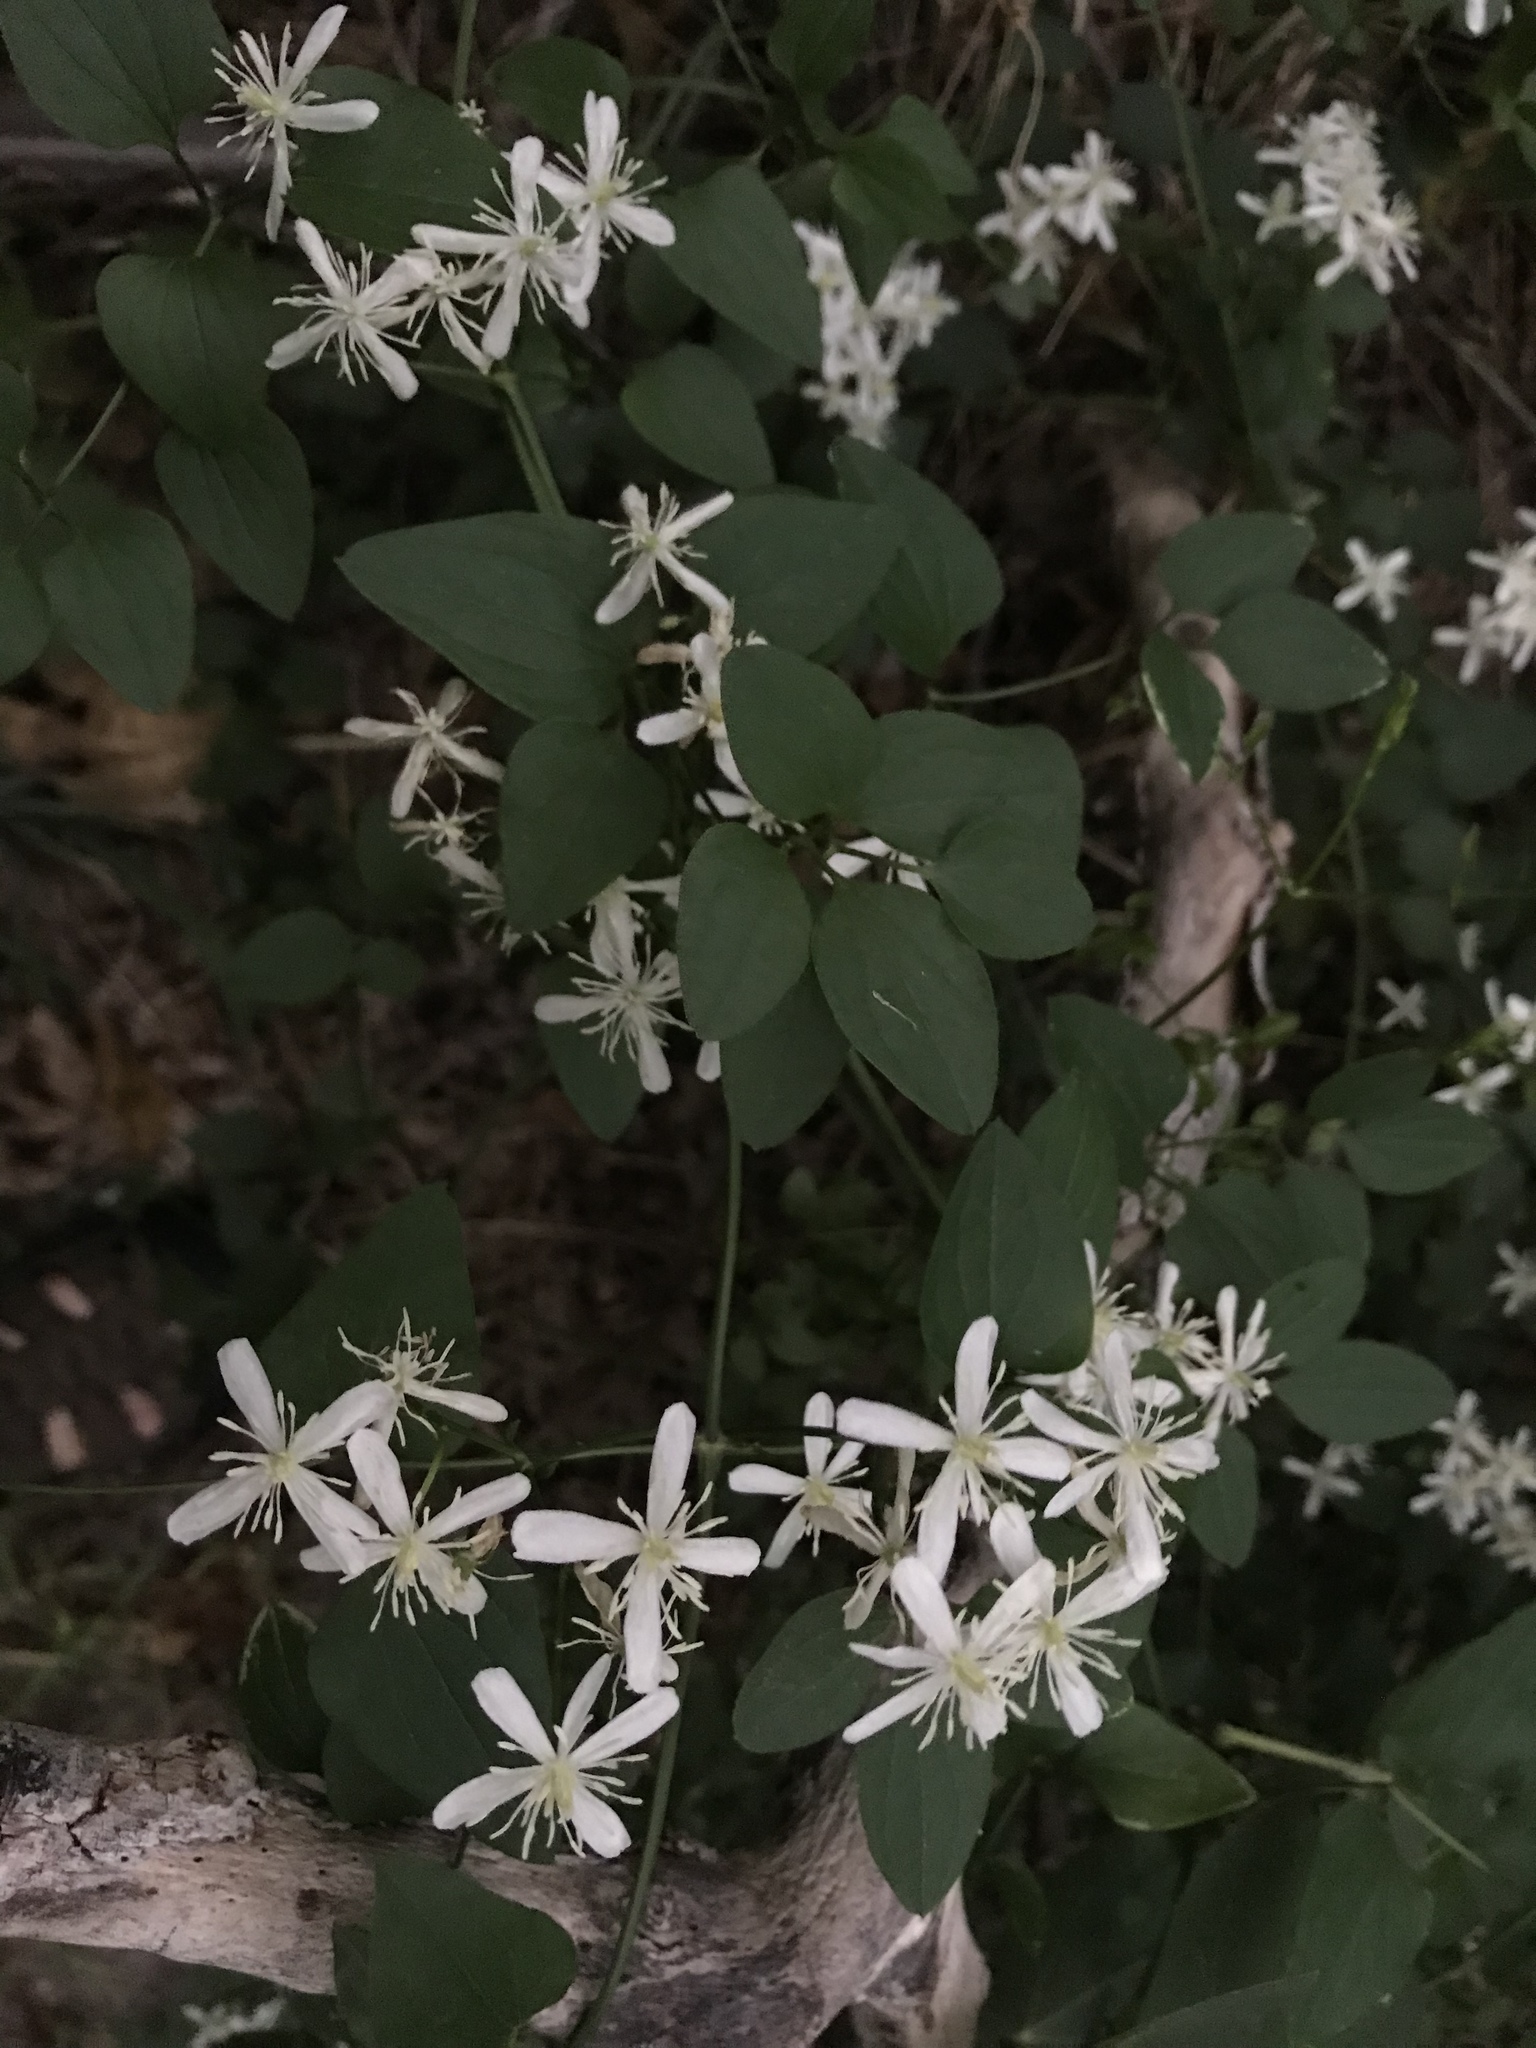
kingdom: Plantae
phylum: Tracheophyta
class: Magnoliopsida
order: Ranunculales
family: Ranunculaceae
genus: Clematis
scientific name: Clematis terniflora
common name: Sweet autumn clematis
